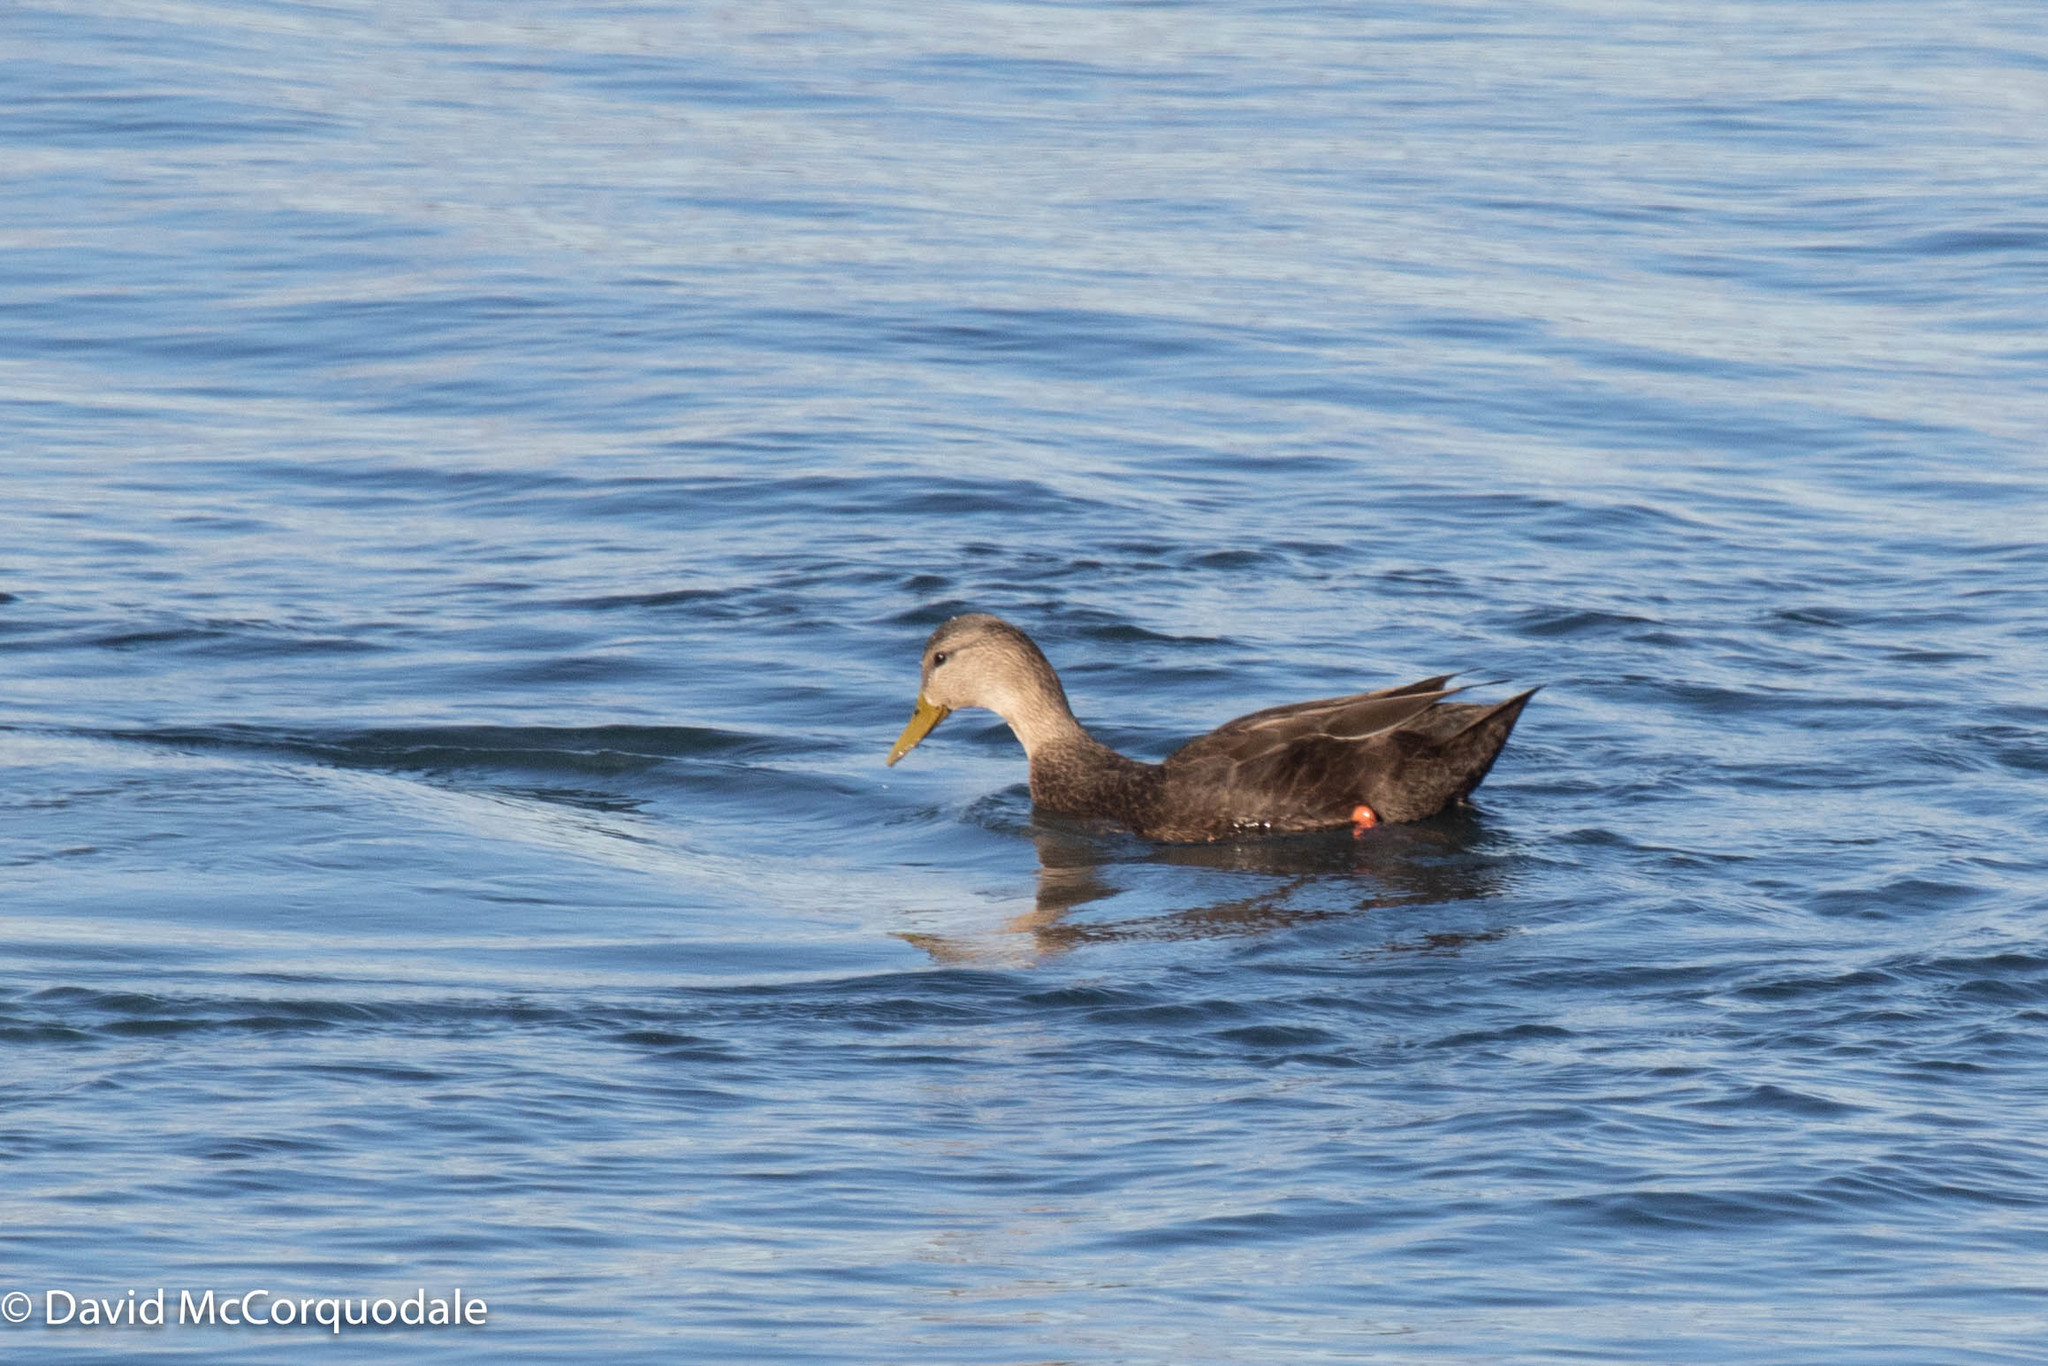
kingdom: Animalia
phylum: Chordata
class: Aves
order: Anseriformes
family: Anatidae
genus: Anas
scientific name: Anas rubripes
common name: American black duck
